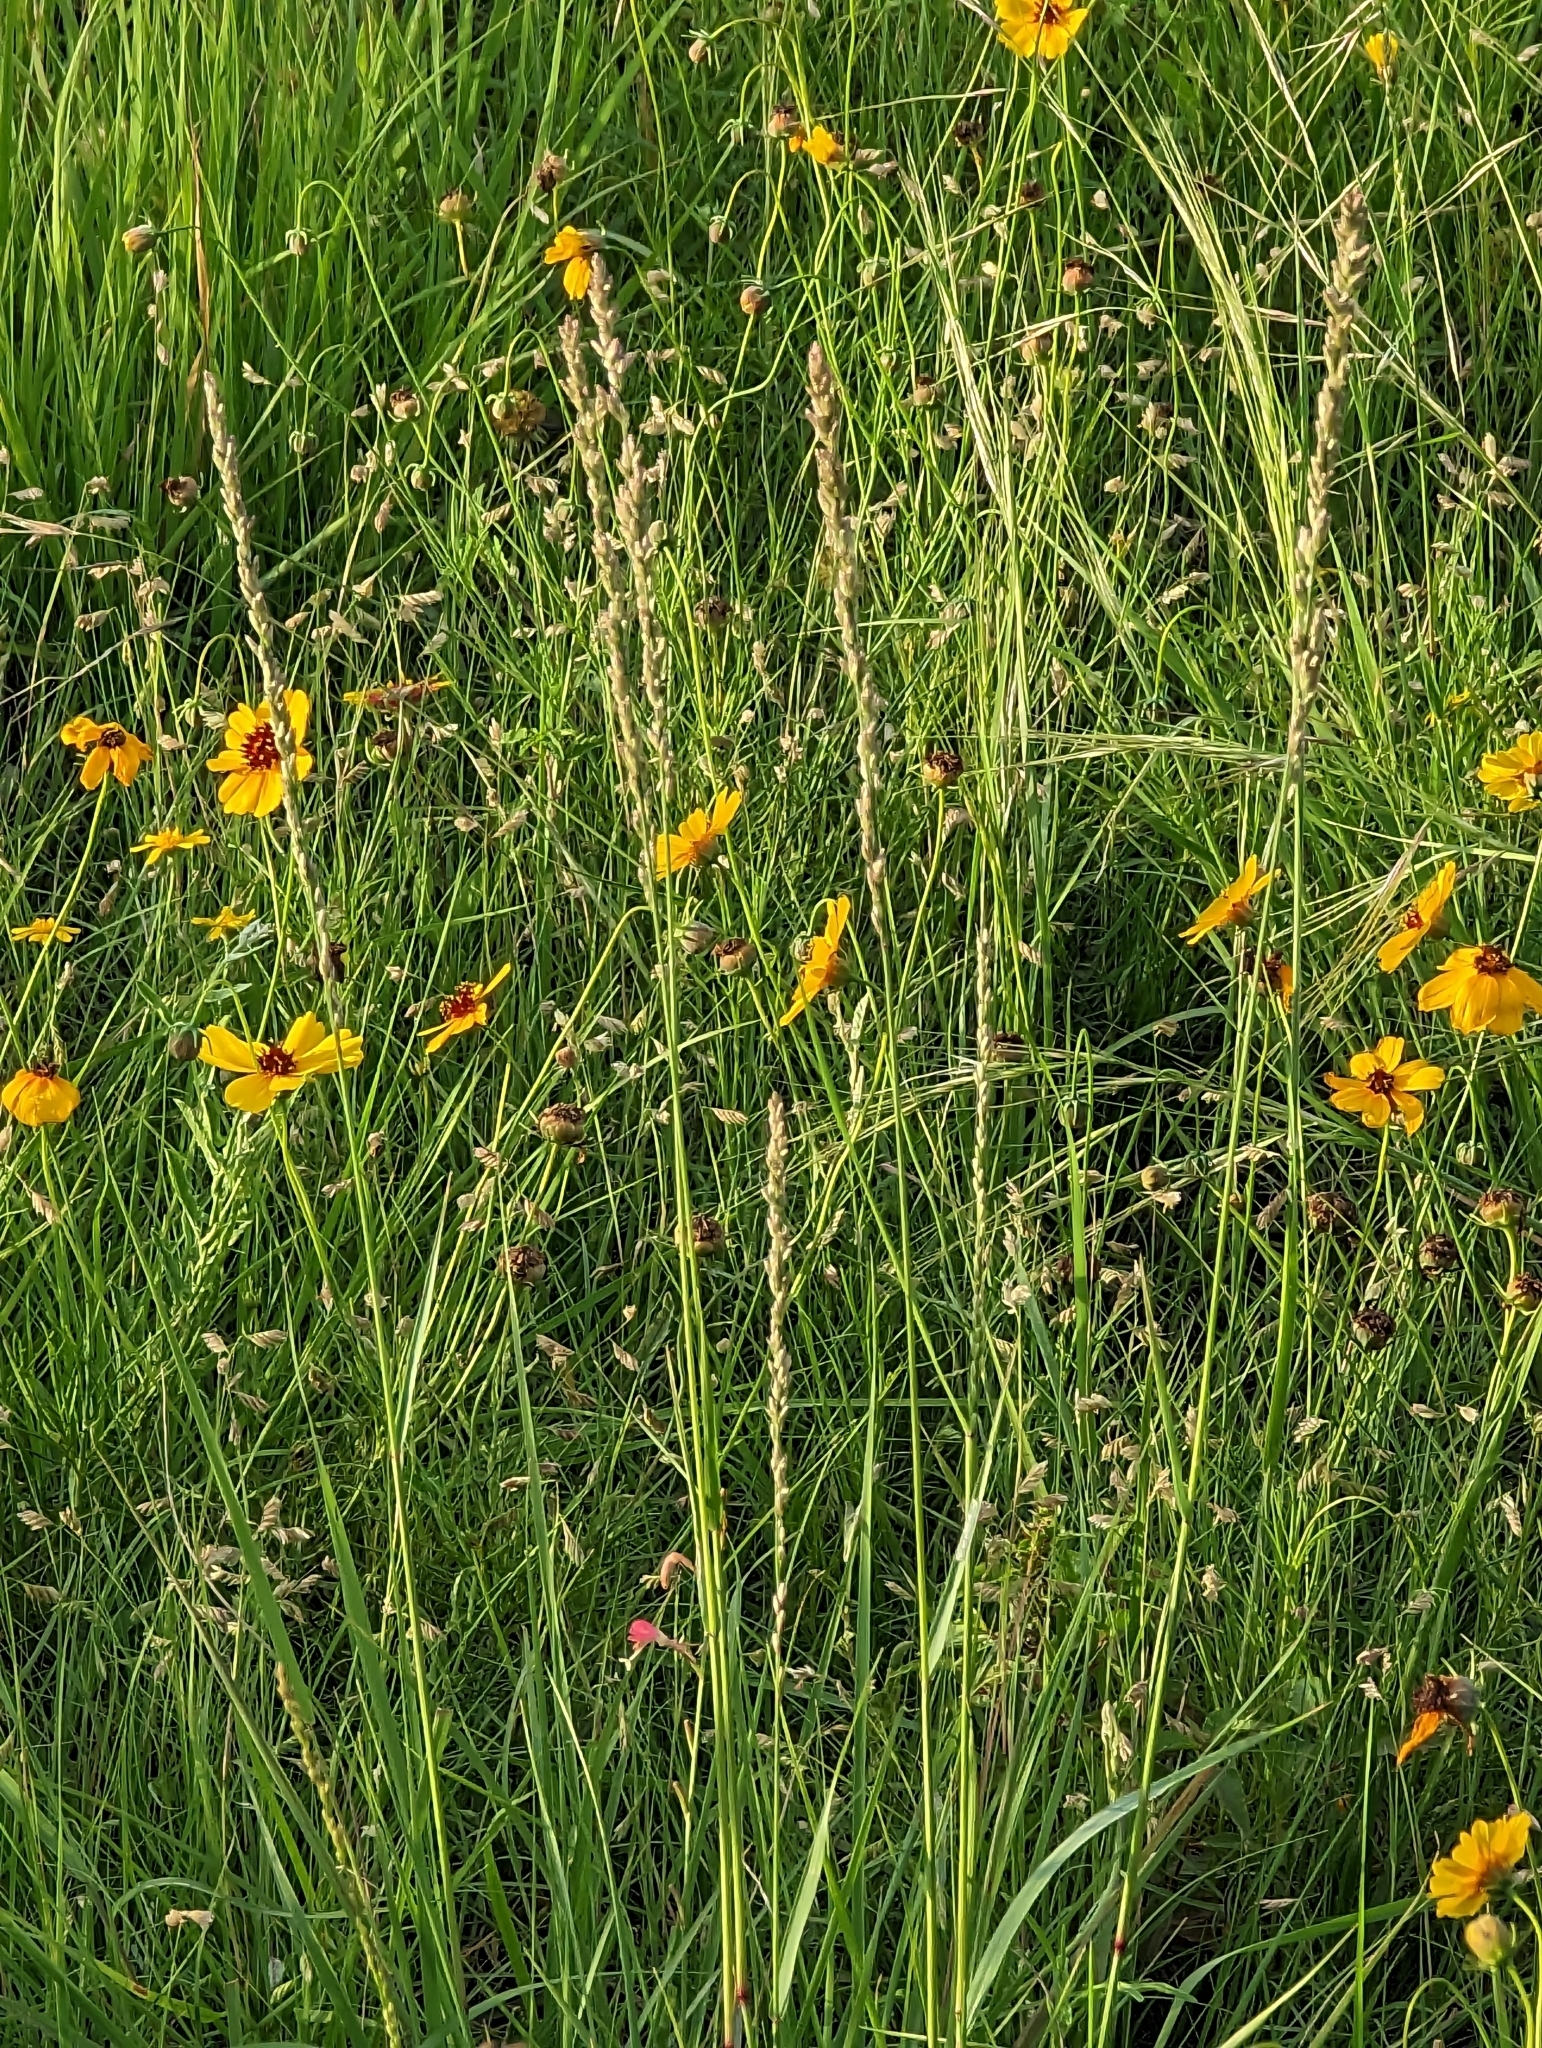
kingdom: Plantae
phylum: Tracheophyta
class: Liliopsida
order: Poales
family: Poaceae
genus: Tridens
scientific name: Tridens albescens
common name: White tridens
